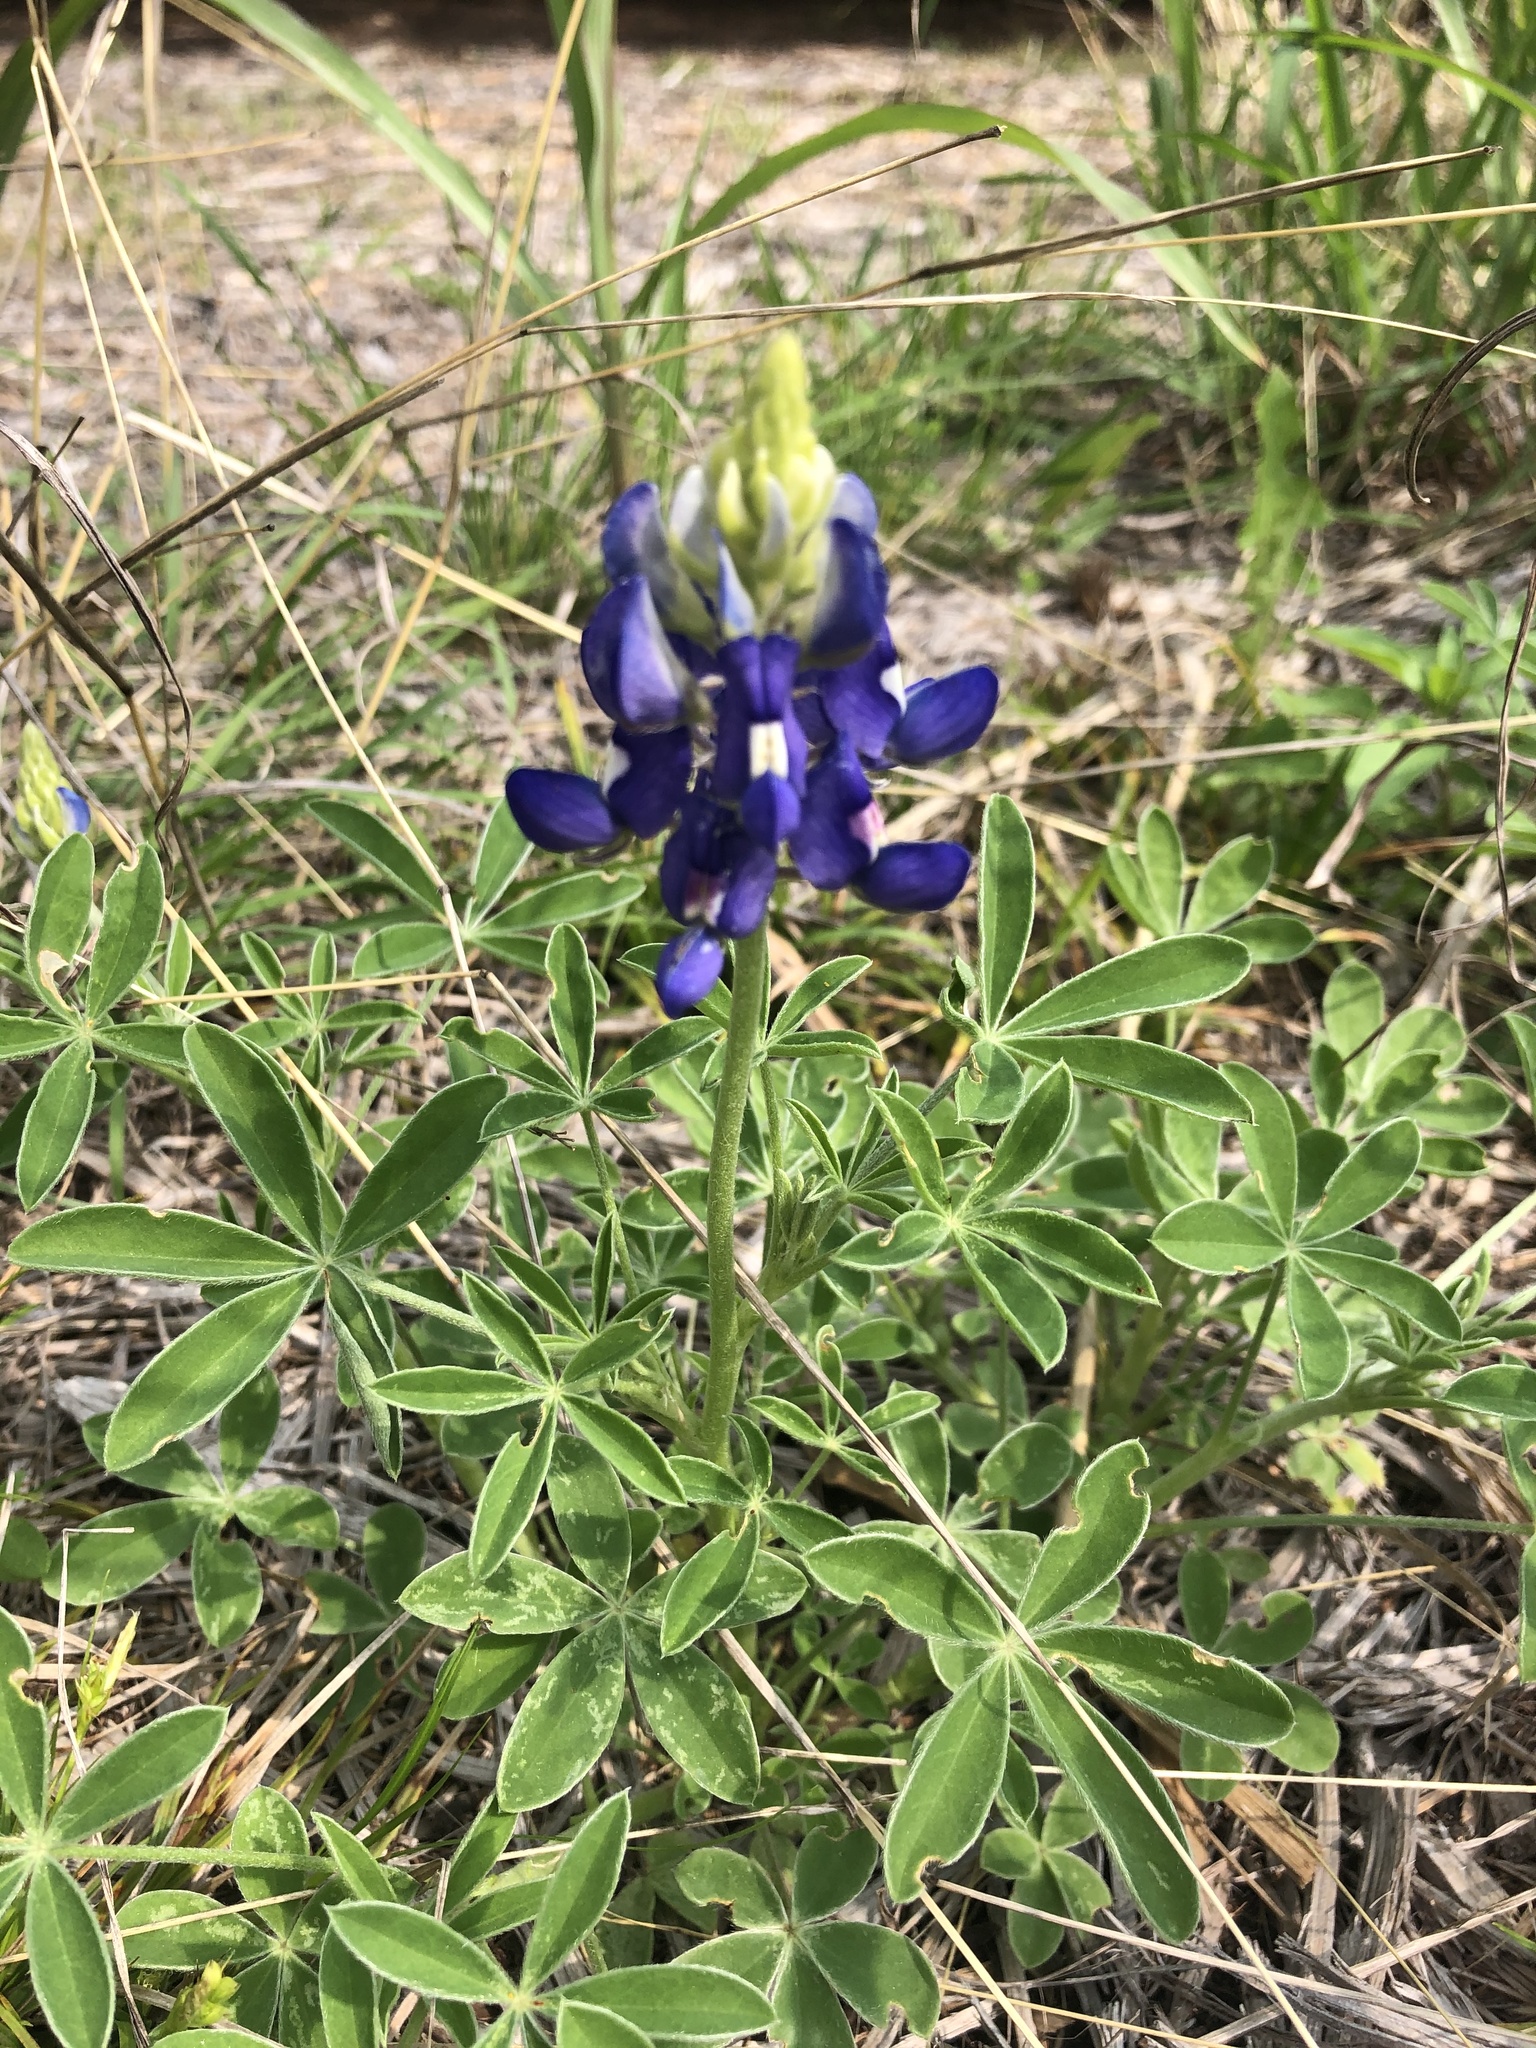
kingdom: Plantae
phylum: Tracheophyta
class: Magnoliopsida
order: Fabales
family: Fabaceae
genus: Lupinus
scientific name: Lupinus texensis
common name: Texas bluebonnet
